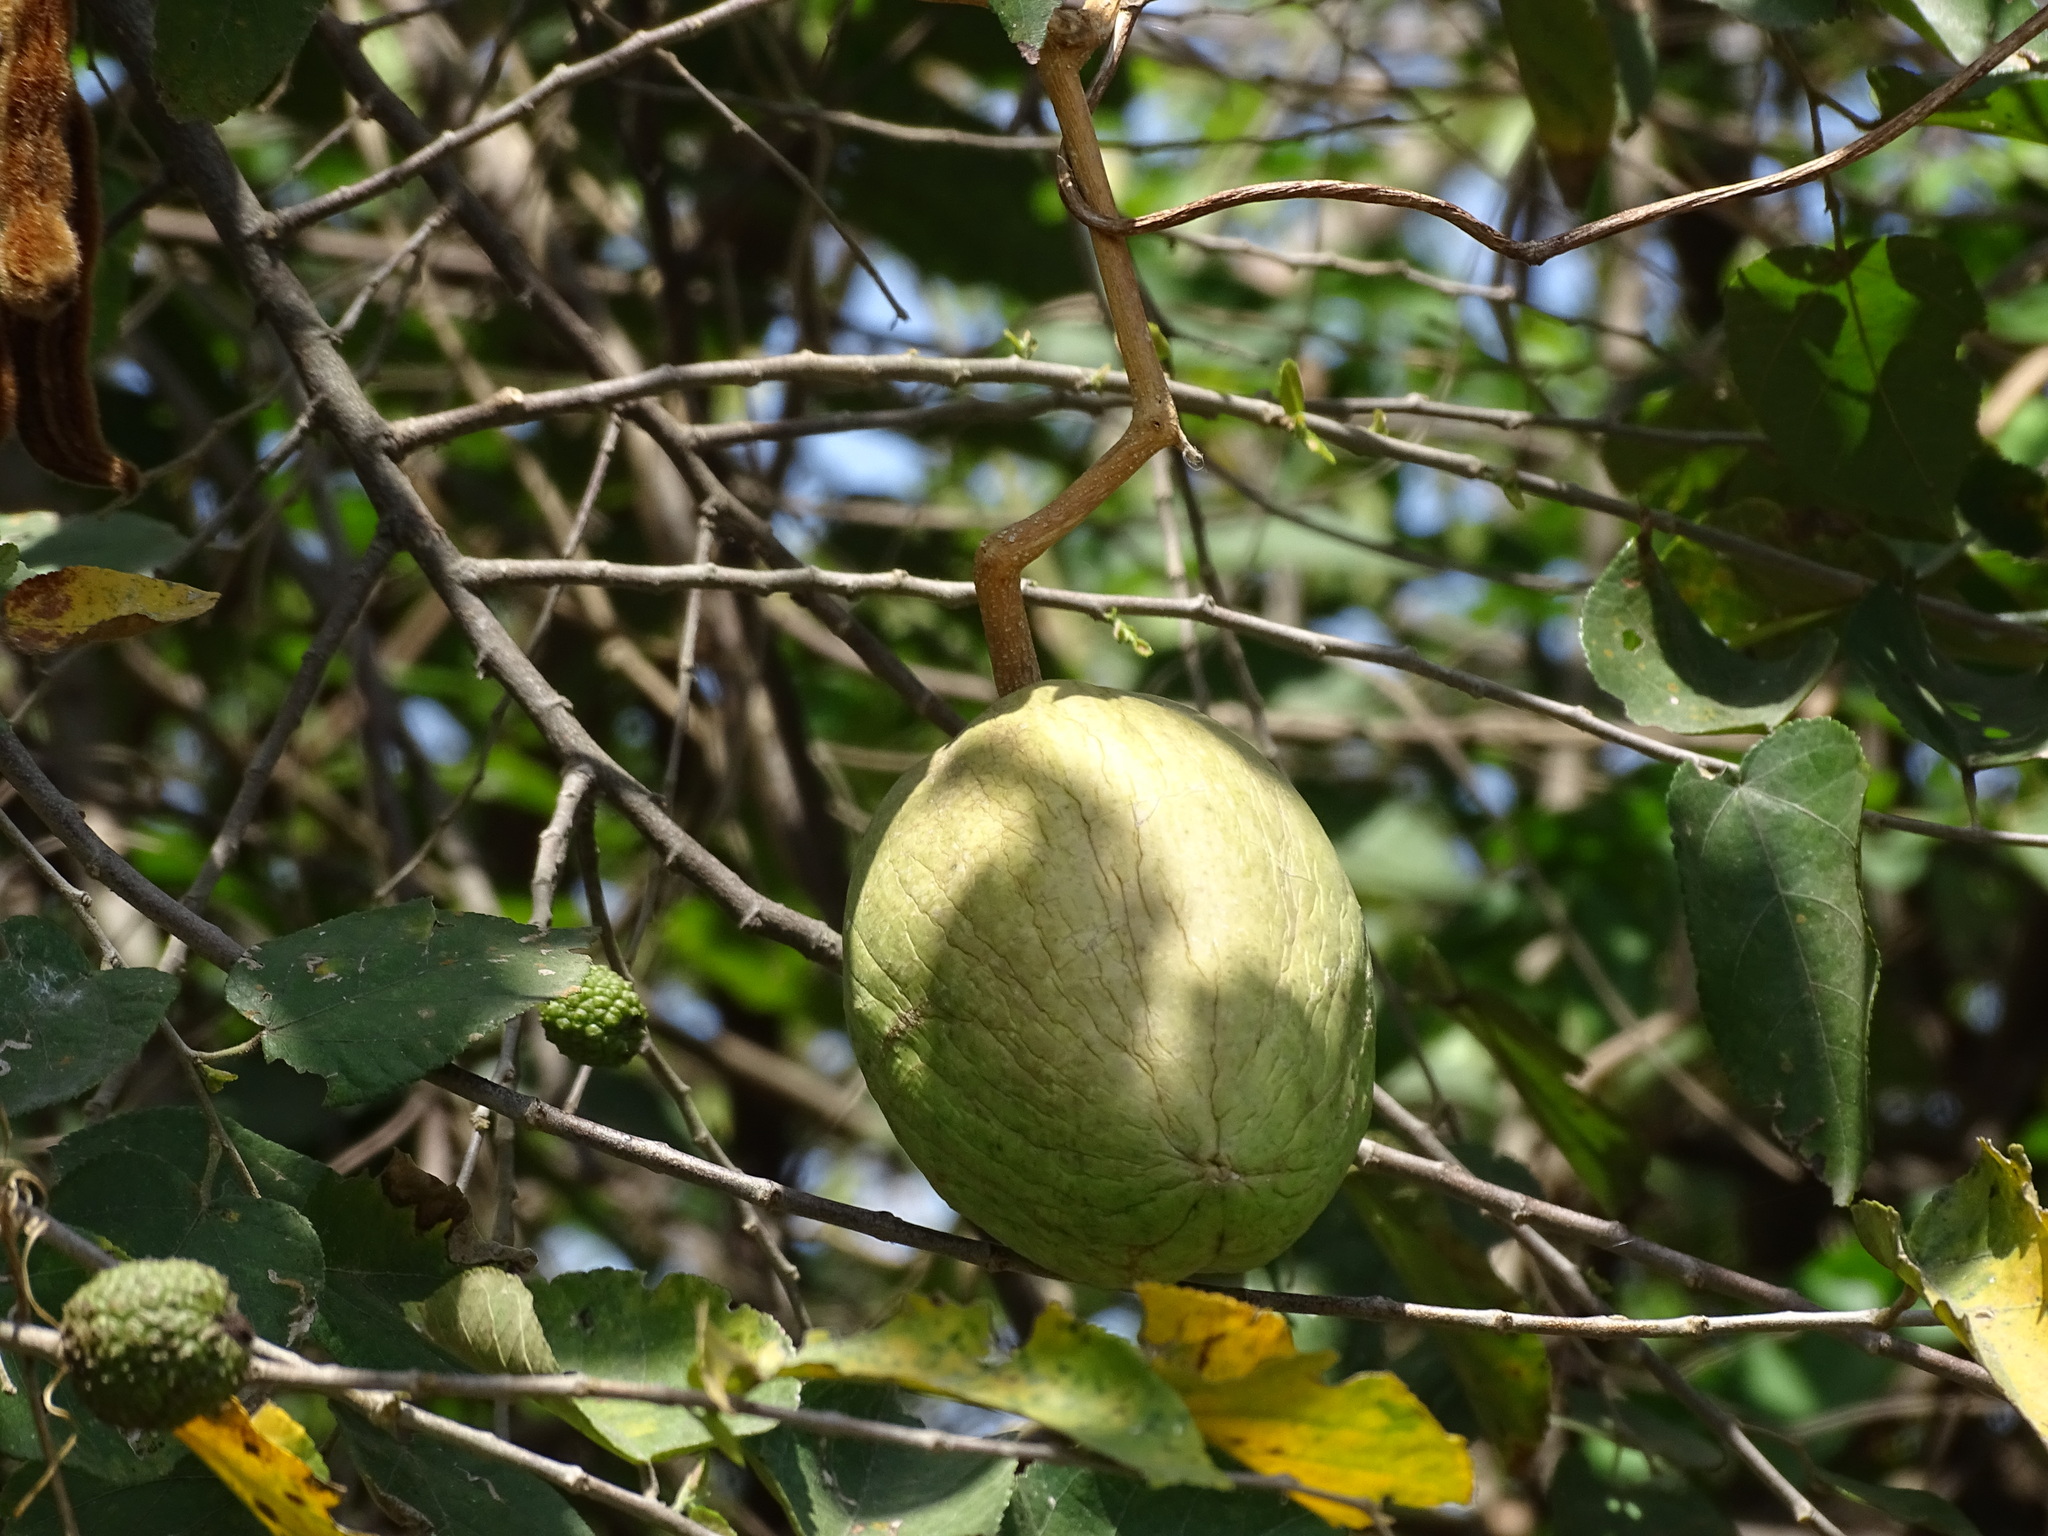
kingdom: Plantae
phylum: Tracheophyta
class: Magnoliopsida
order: Gentianales
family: Apocynaceae
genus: Gonolobus
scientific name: Gonolobus niger
